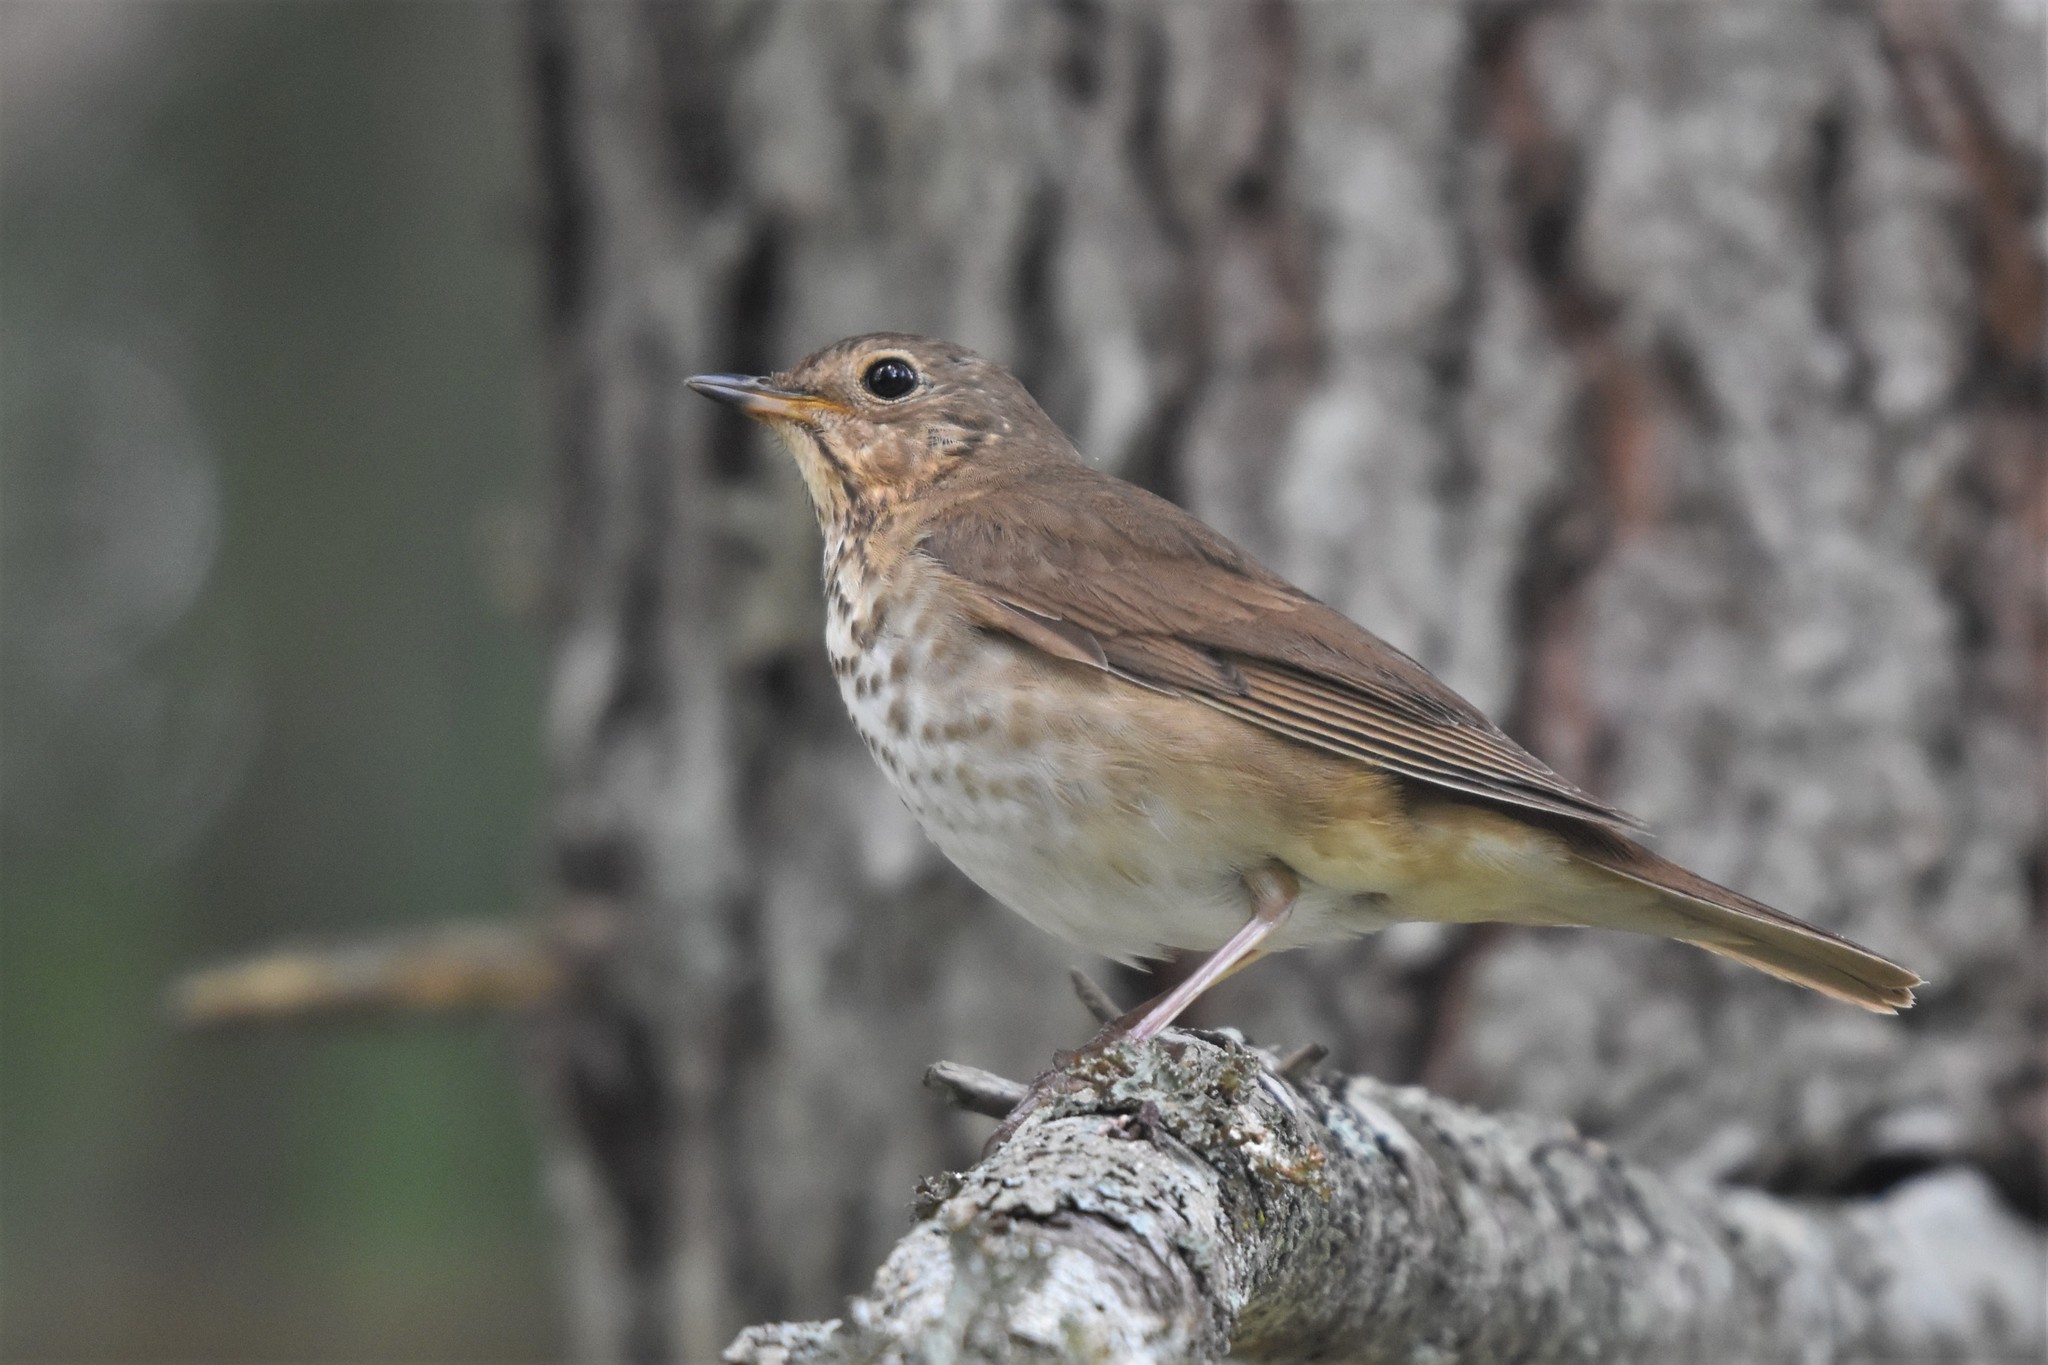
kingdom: Animalia
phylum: Chordata
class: Aves
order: Passeriformes
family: Turdidae
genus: Catharus
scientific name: Catharus ustulatus
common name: Swainson's thrush
